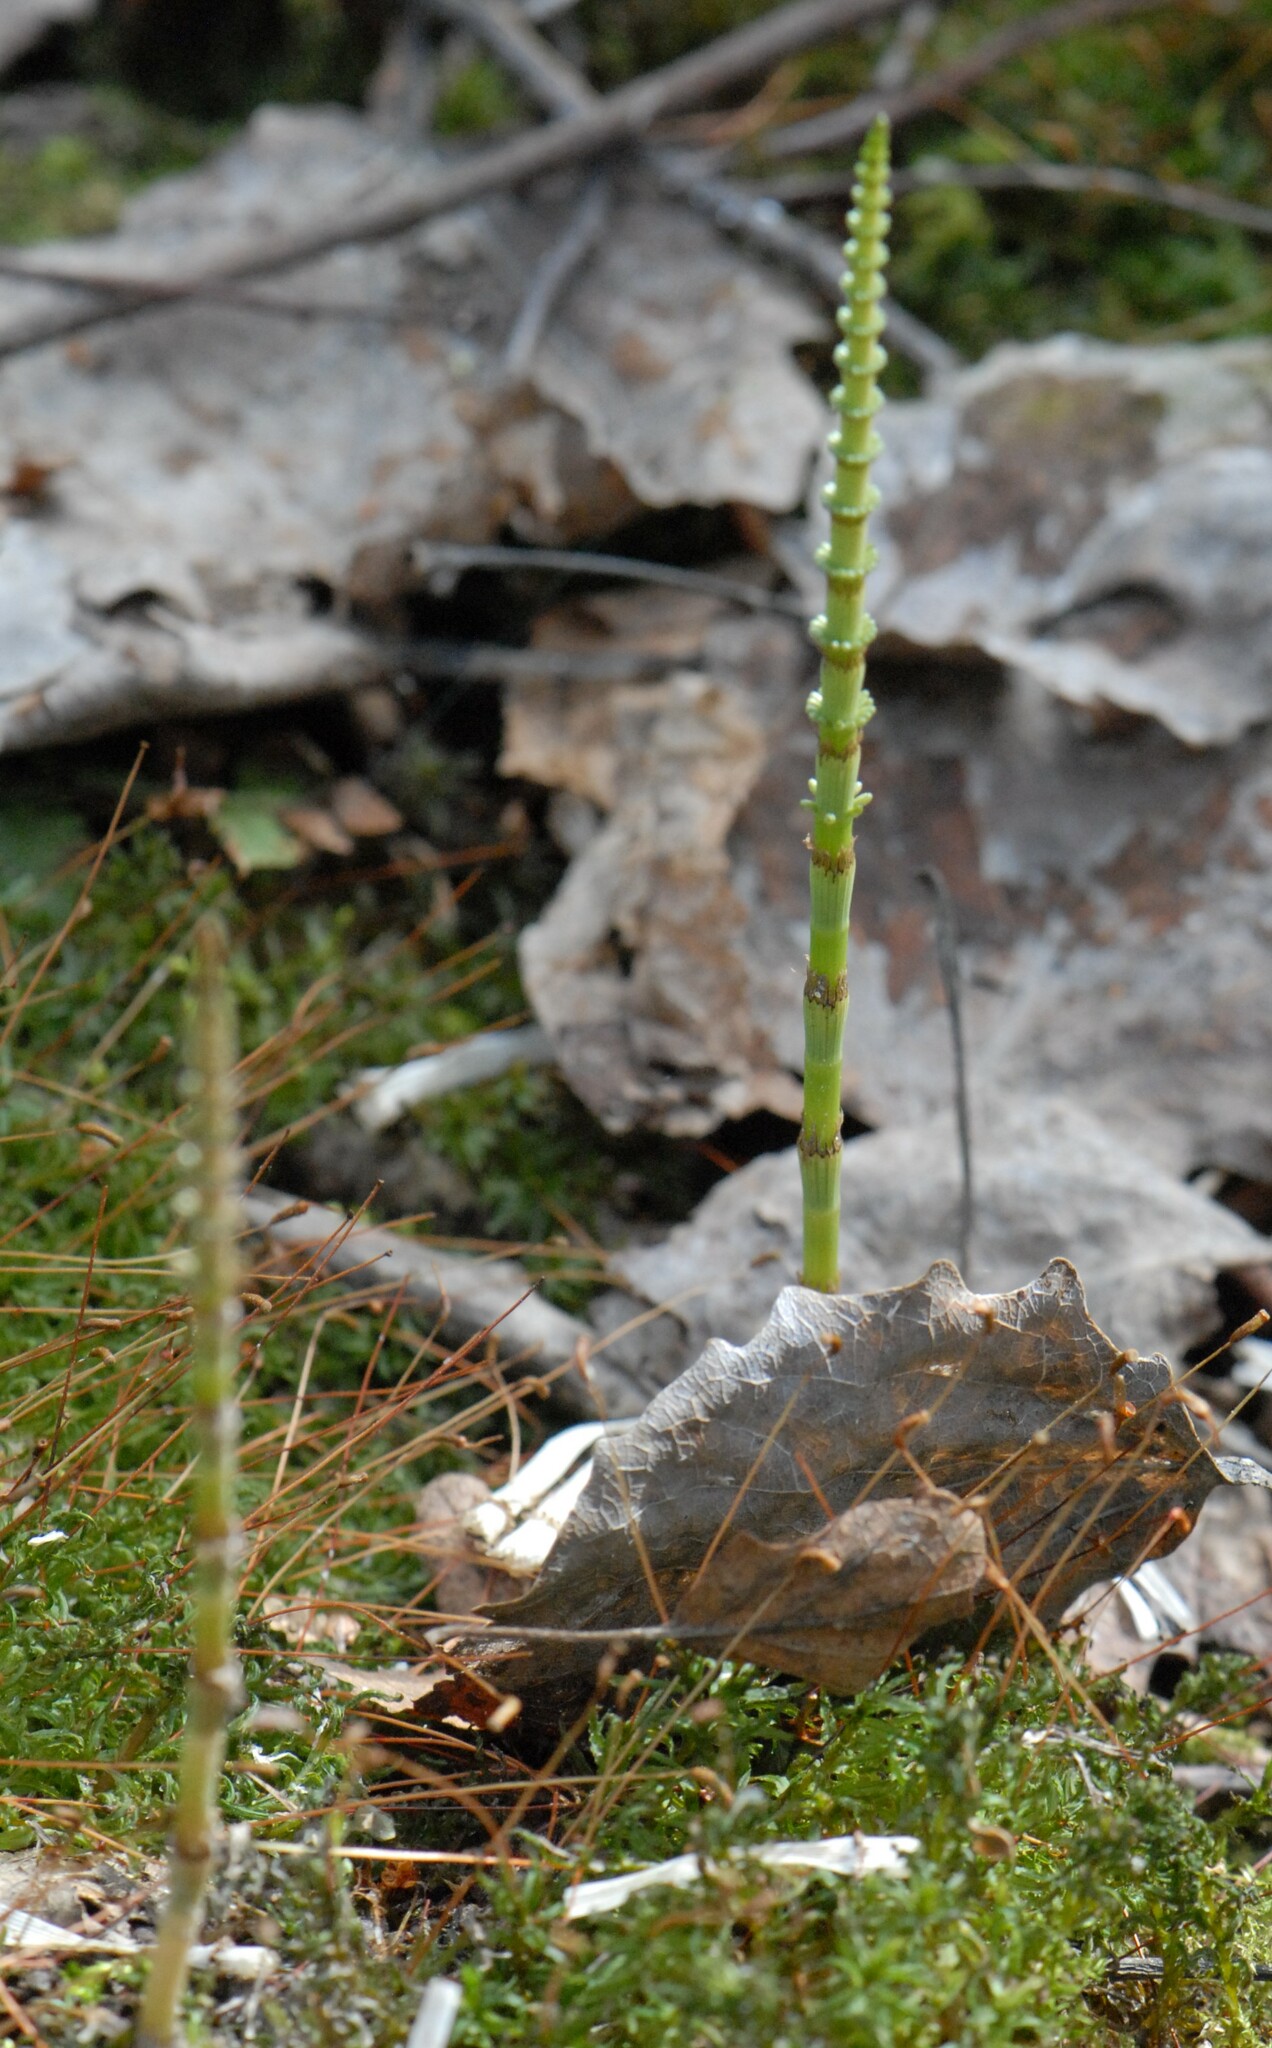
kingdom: Plantae
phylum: Tracheophyta
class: Polypodiopsida
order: Equisetales
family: Equisetaceae
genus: Equisetum
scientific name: Equisetum pratense
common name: Meadow horsetail
